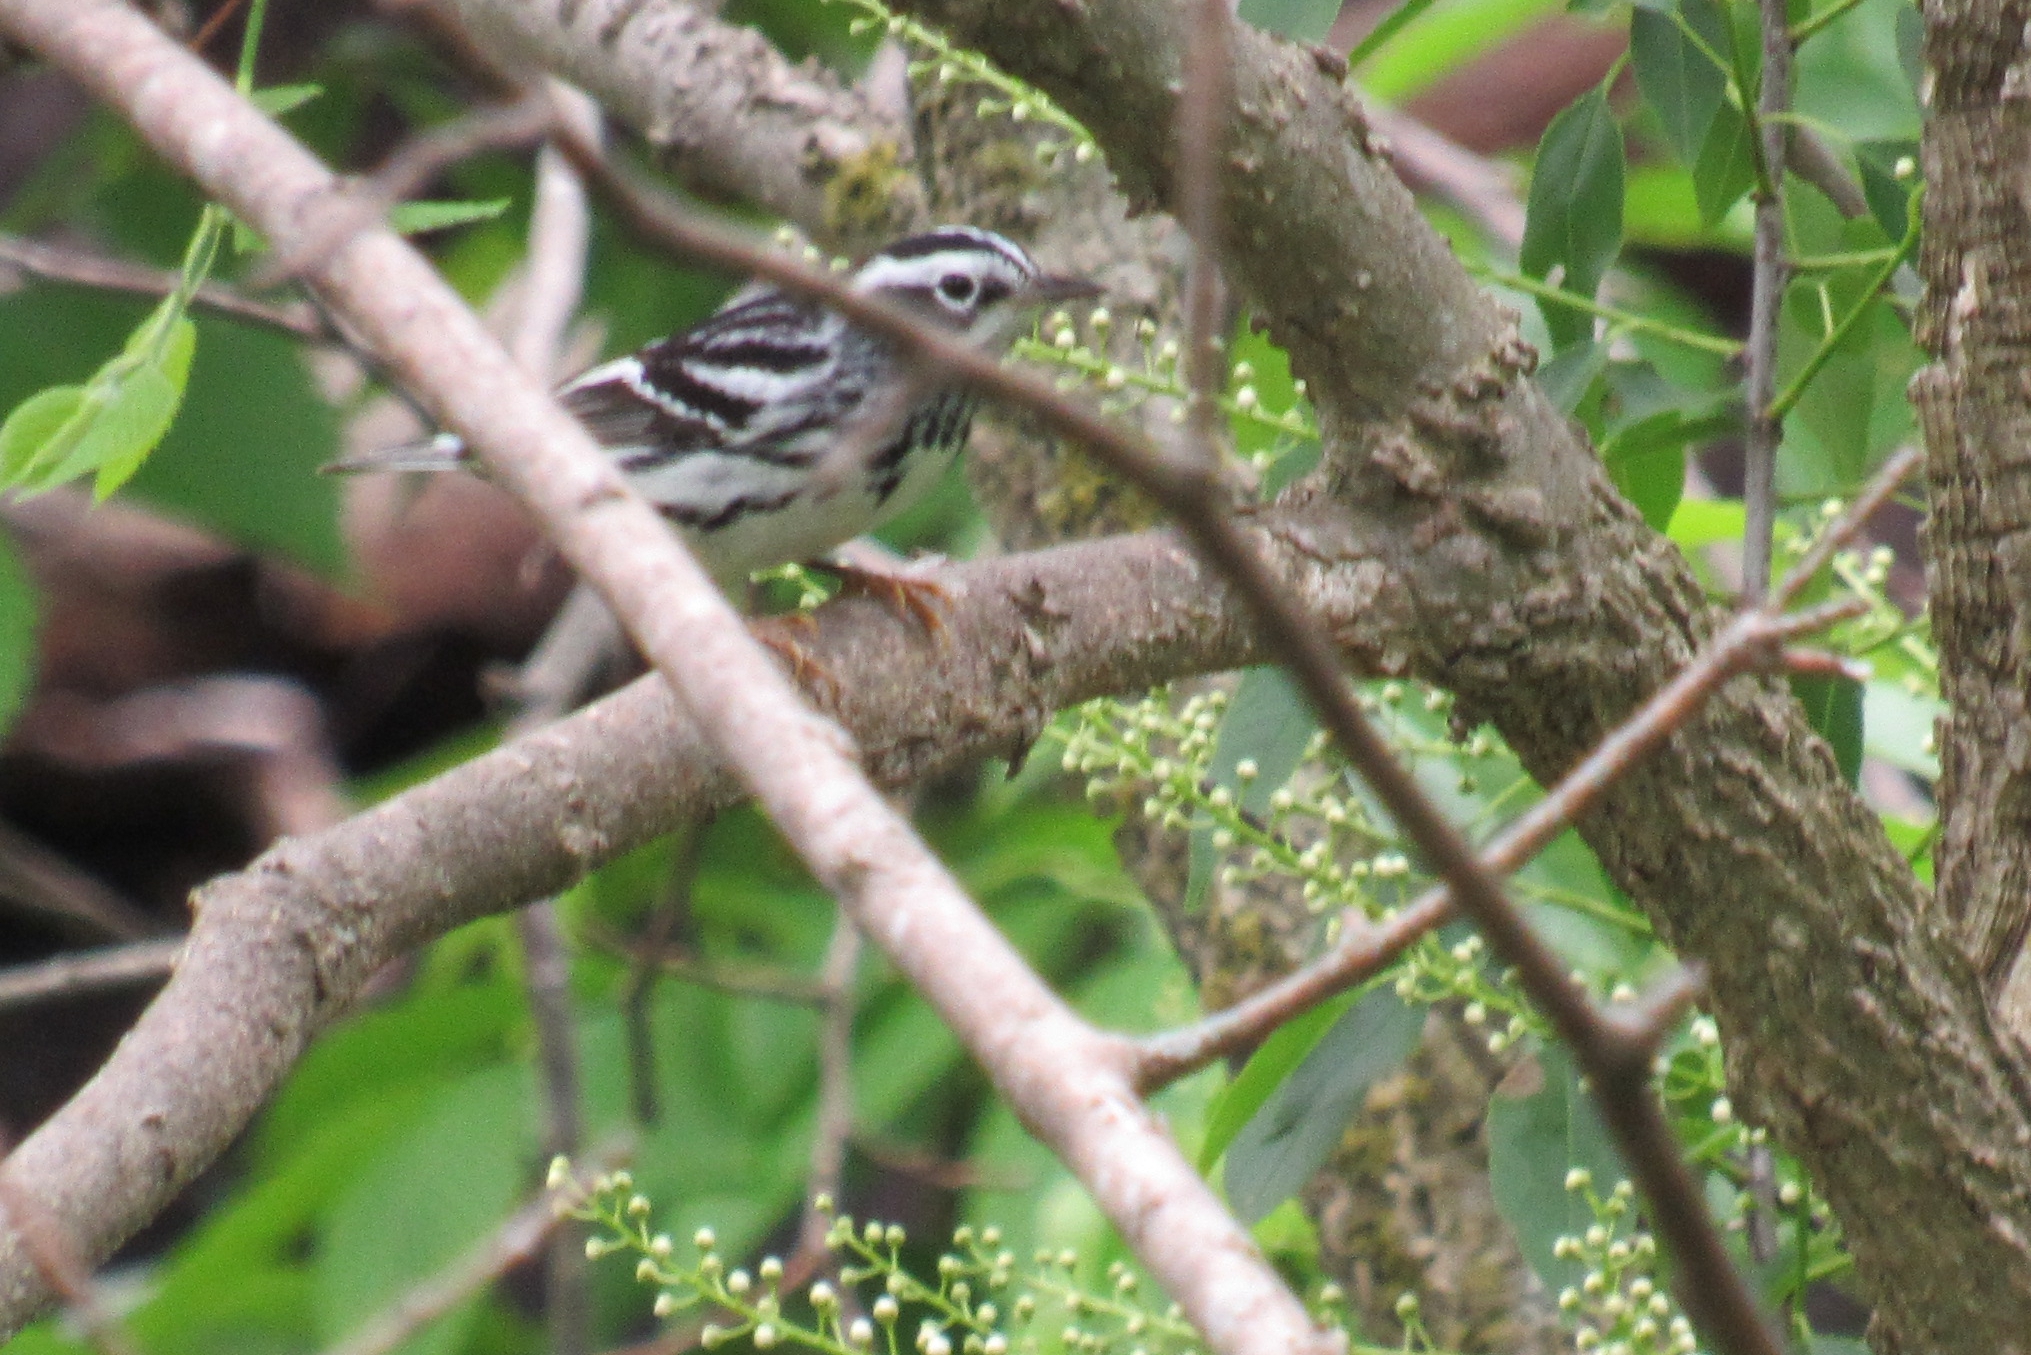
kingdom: Animalia
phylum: Chordata
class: Aves
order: Passeriformes
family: Parulidae
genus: Mniotilta
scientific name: Mniotilta varia
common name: Black-and-white warbler
